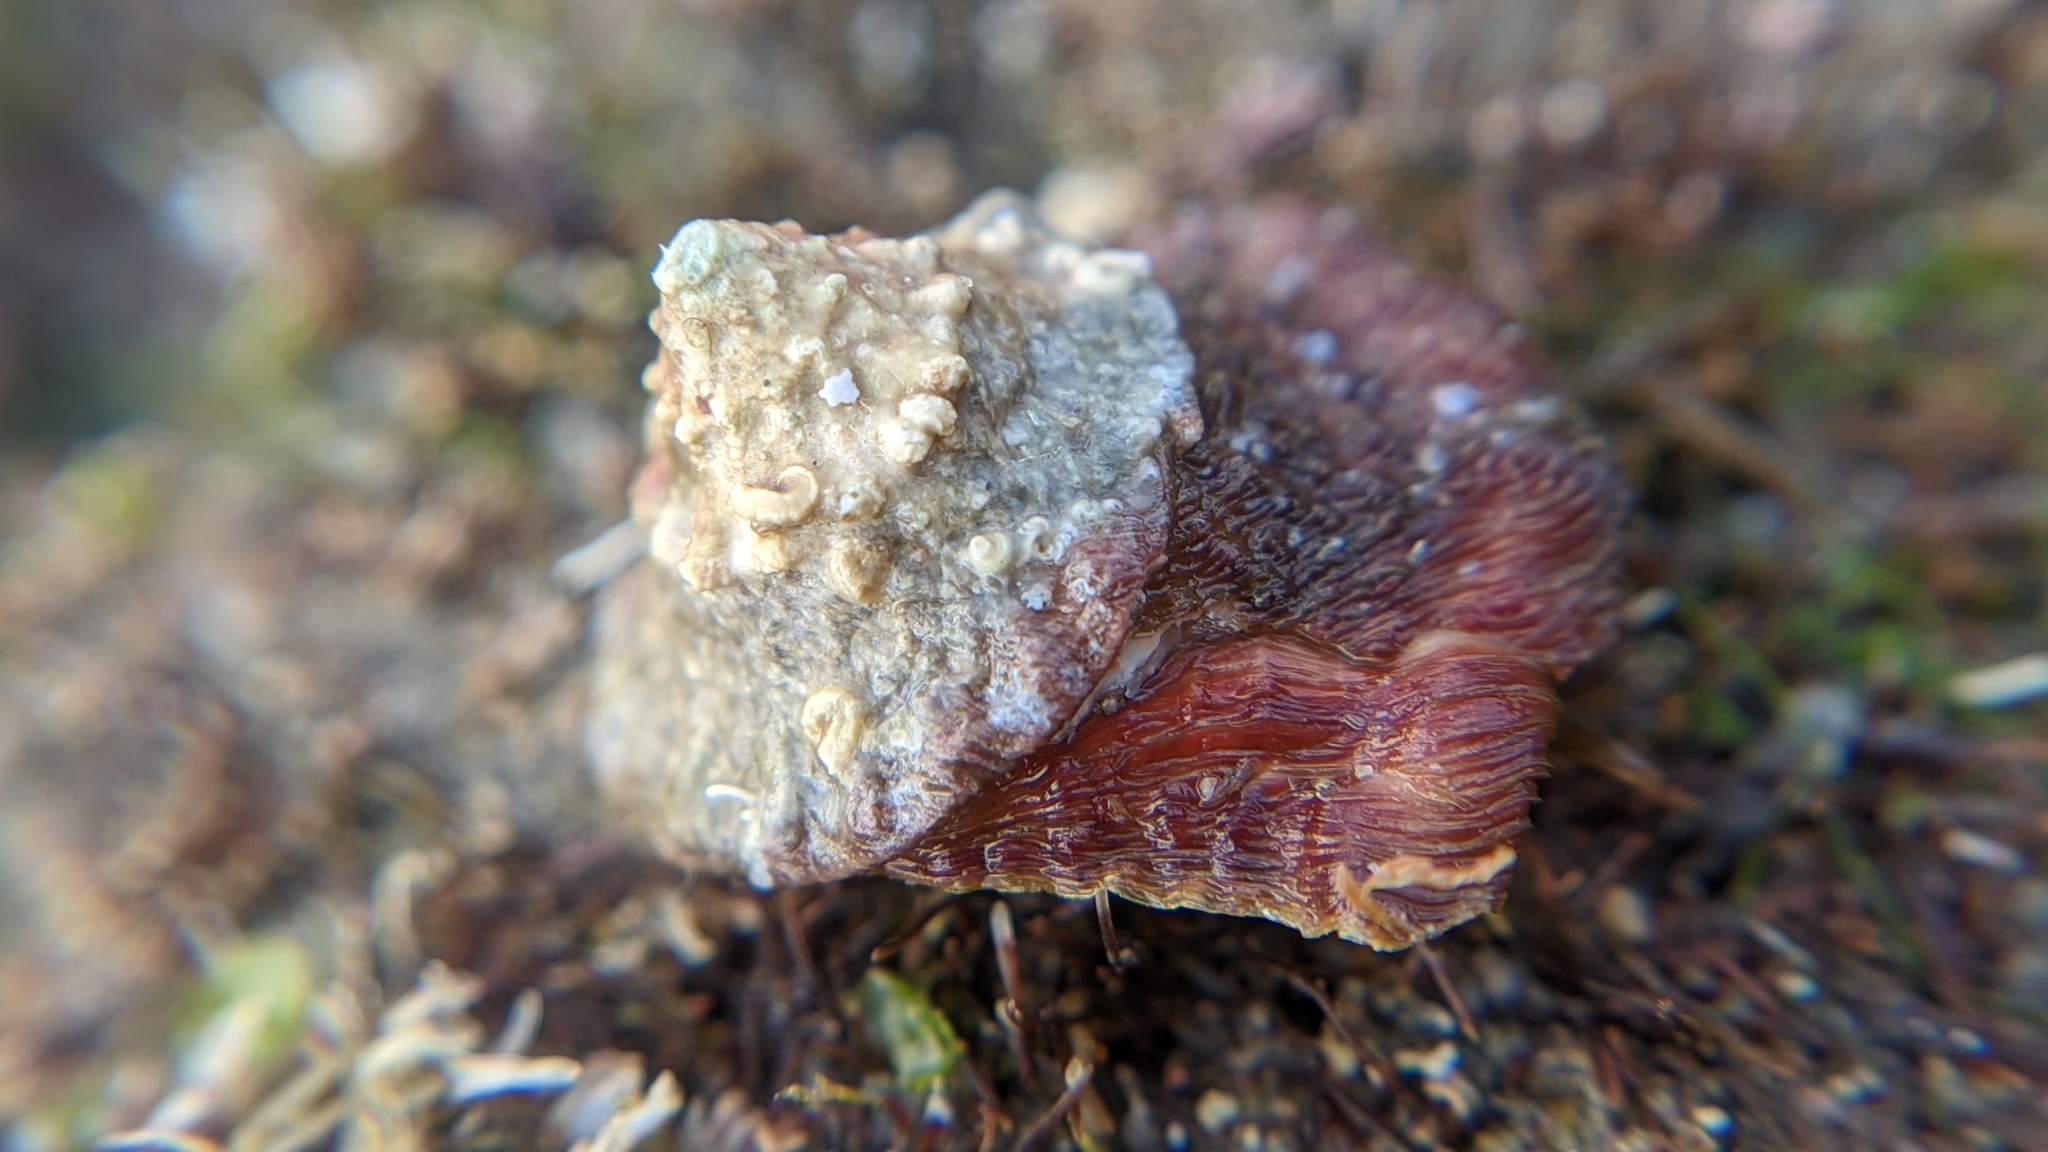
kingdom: Animalia
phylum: Mollusca
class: Gastropoda
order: Trochida
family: Turbinidae
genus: Megastraea
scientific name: Megastraea undosa
